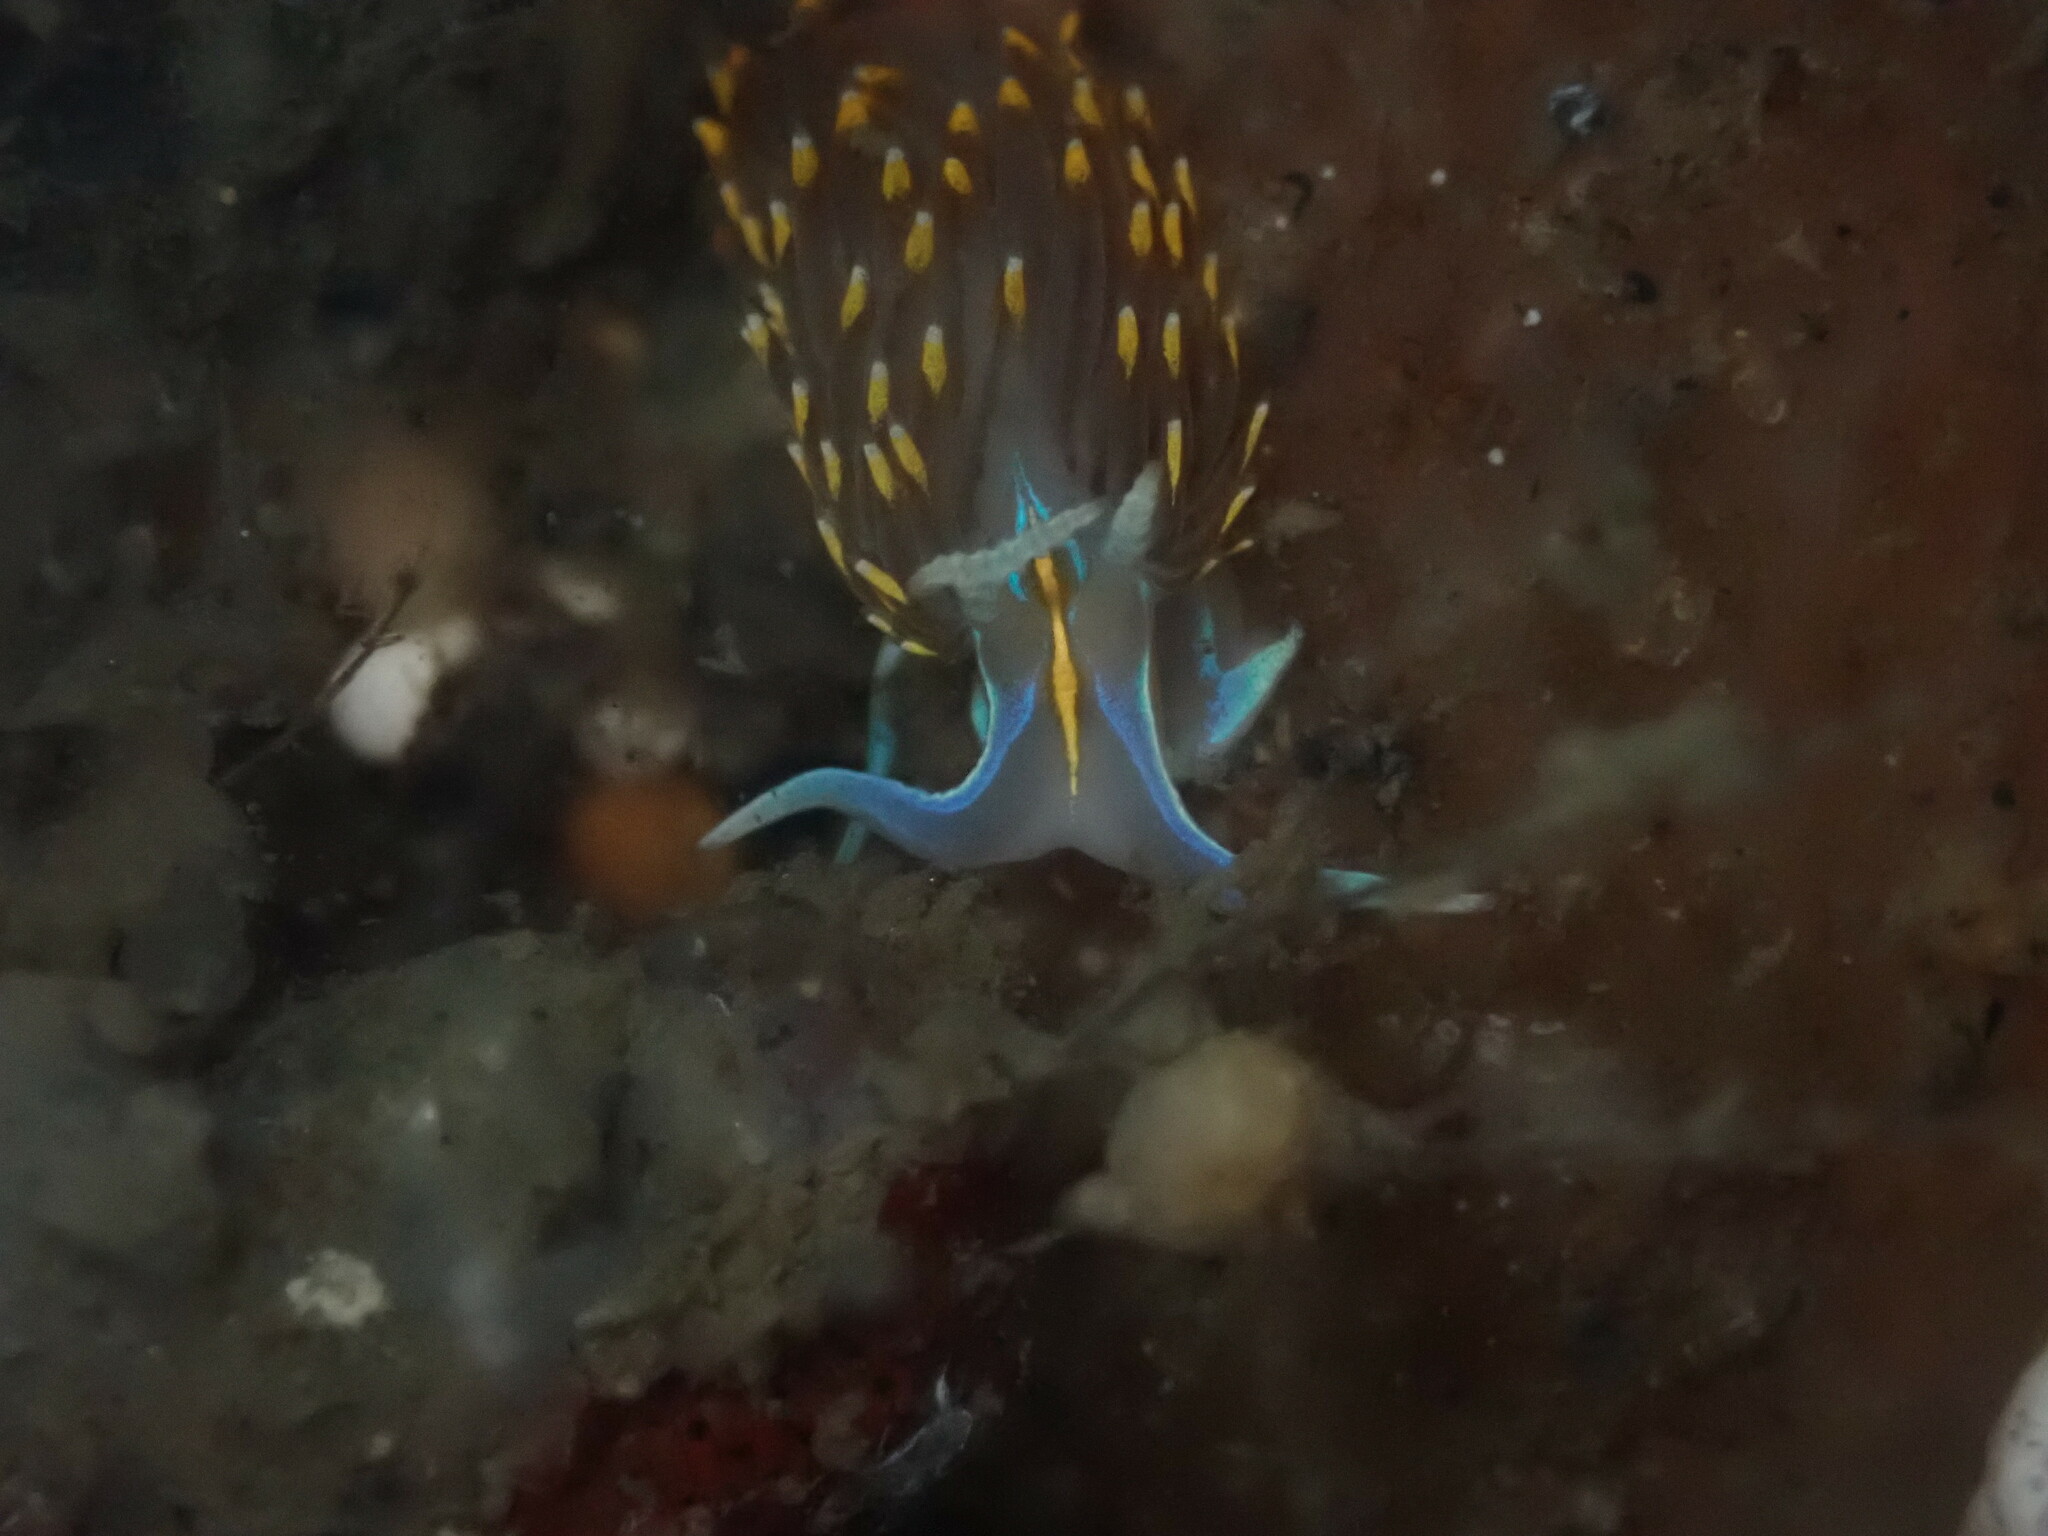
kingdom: Animalia
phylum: Mollusca
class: Gastropoda
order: Nudibranchia
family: Myrrhinidae
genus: Hermissenda
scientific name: Hermissenda opalescens
